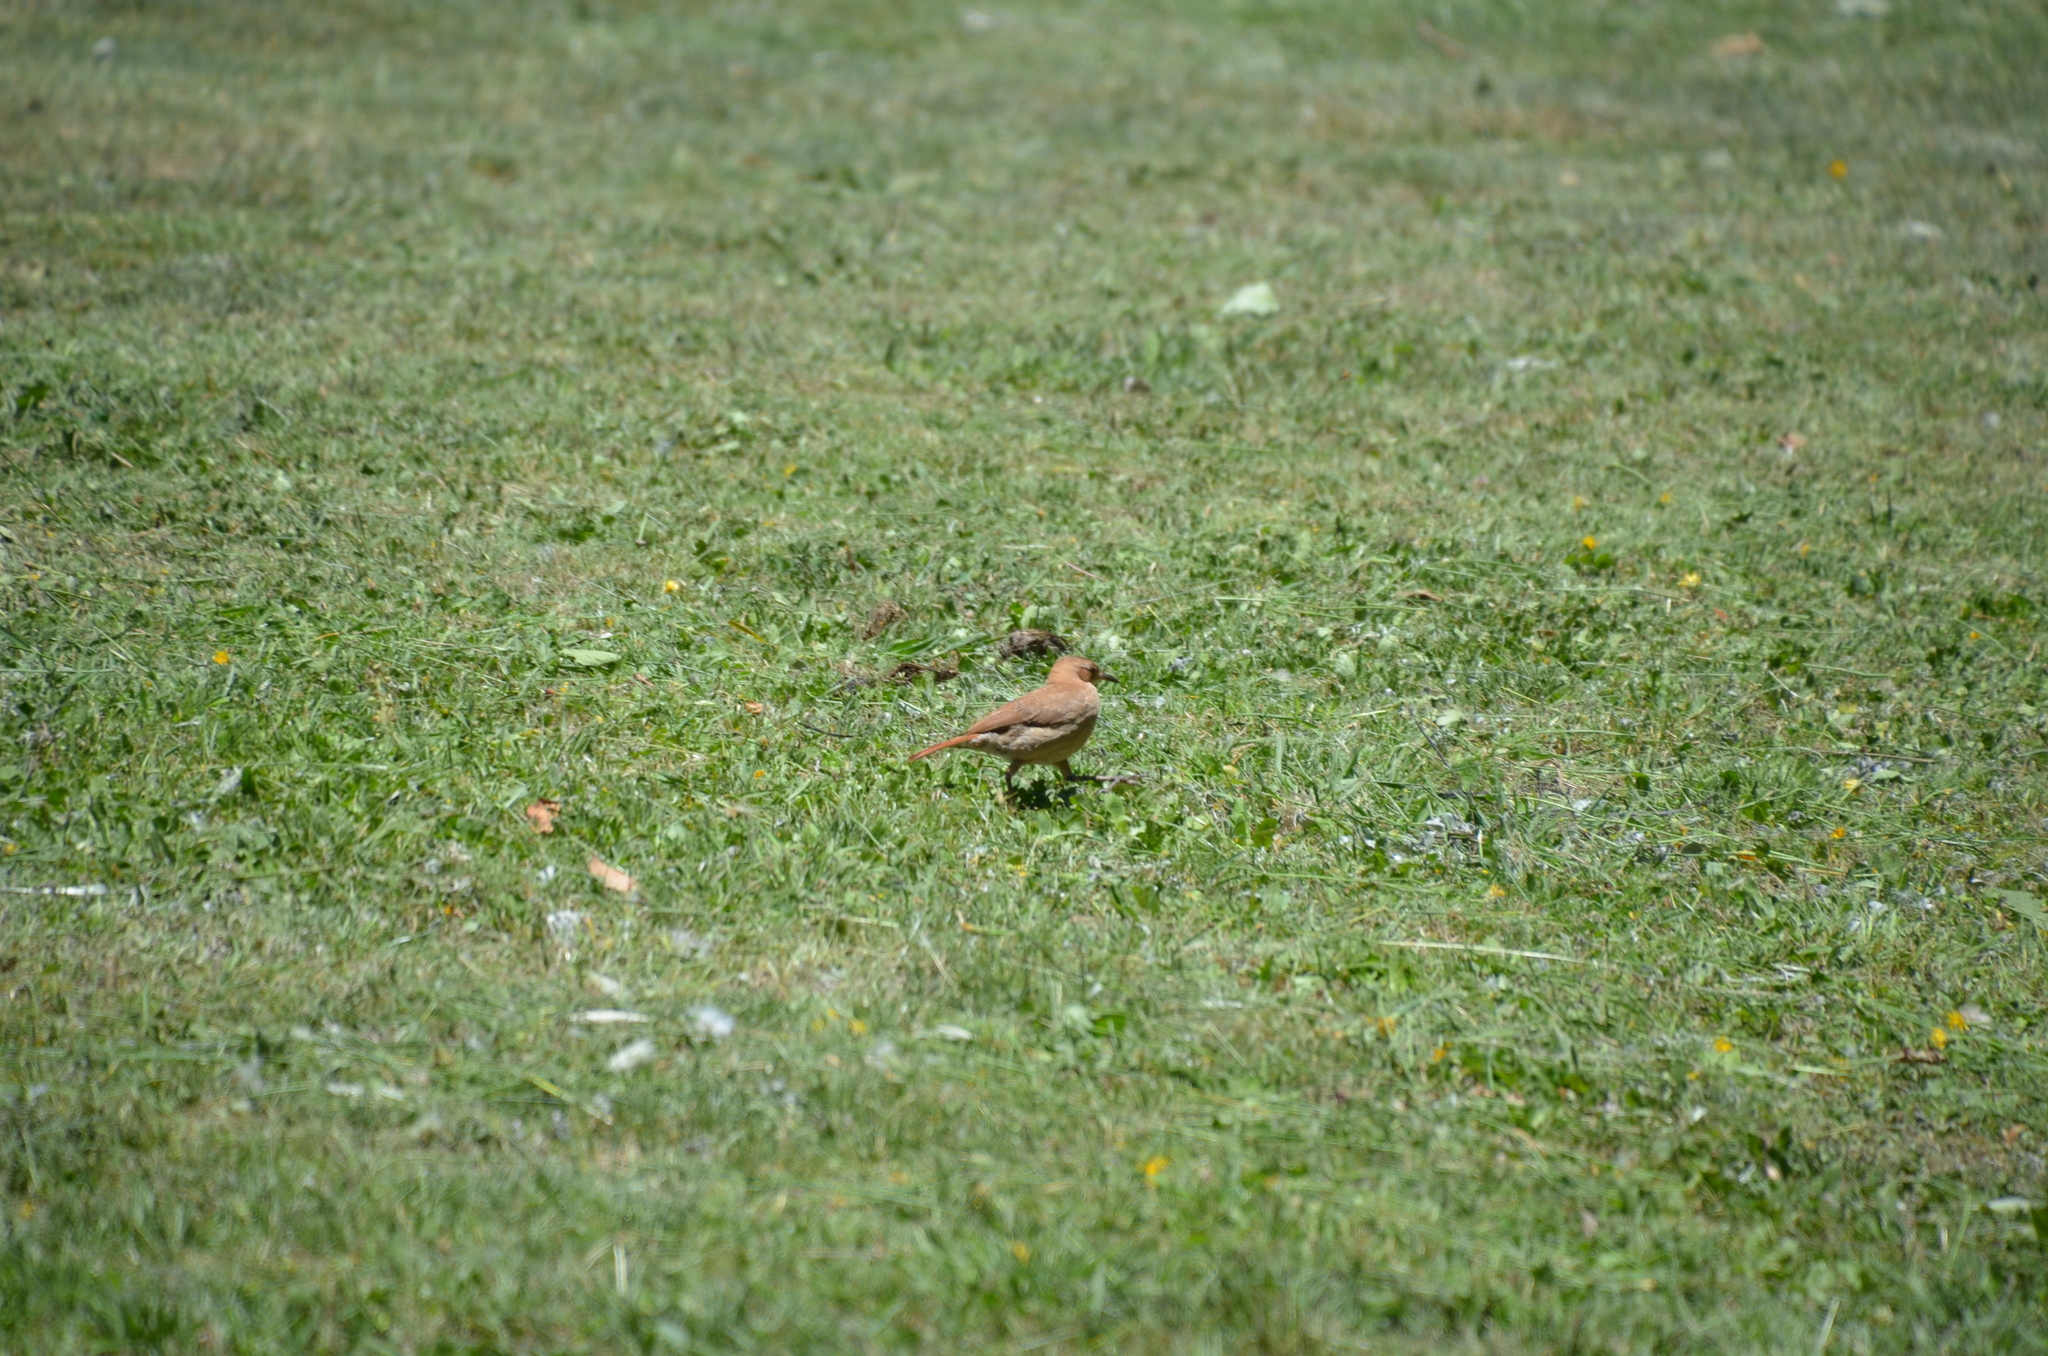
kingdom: Animalia
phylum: Chordata
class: Aves
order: Passeriformes
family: Furnariidae
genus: Furnarius
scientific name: Furnarius rufus
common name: Rufous hornero
